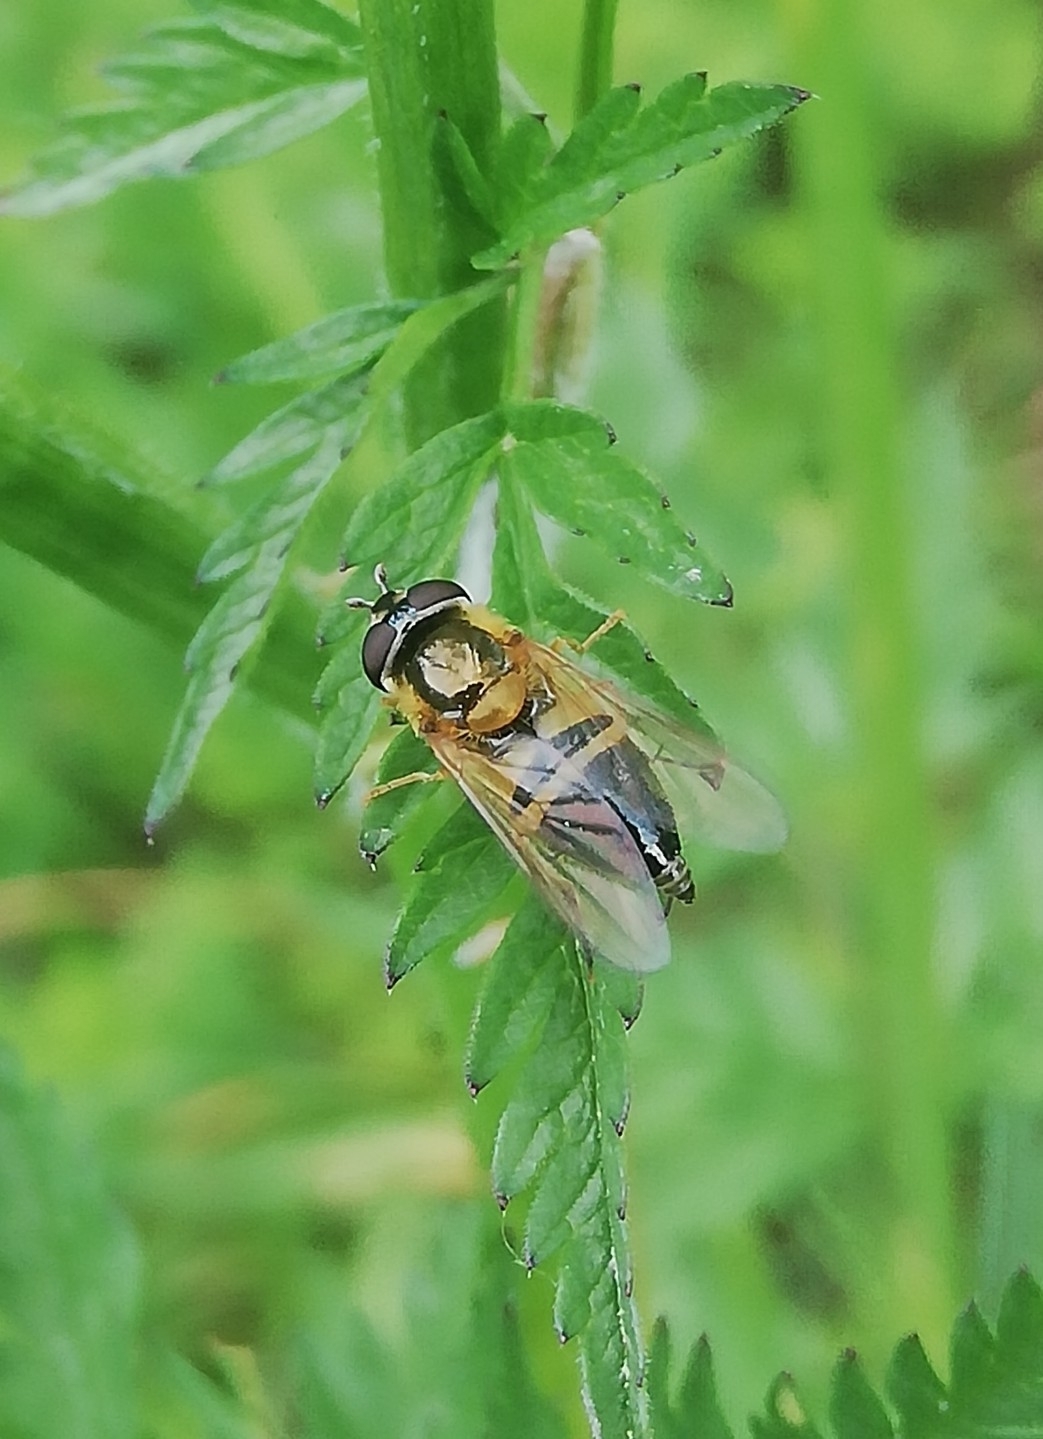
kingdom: Animalia
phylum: Arthropoda
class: Insecta
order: Diptera
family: Syrphidae
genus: Epistrophe
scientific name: Epistrophe eligans
